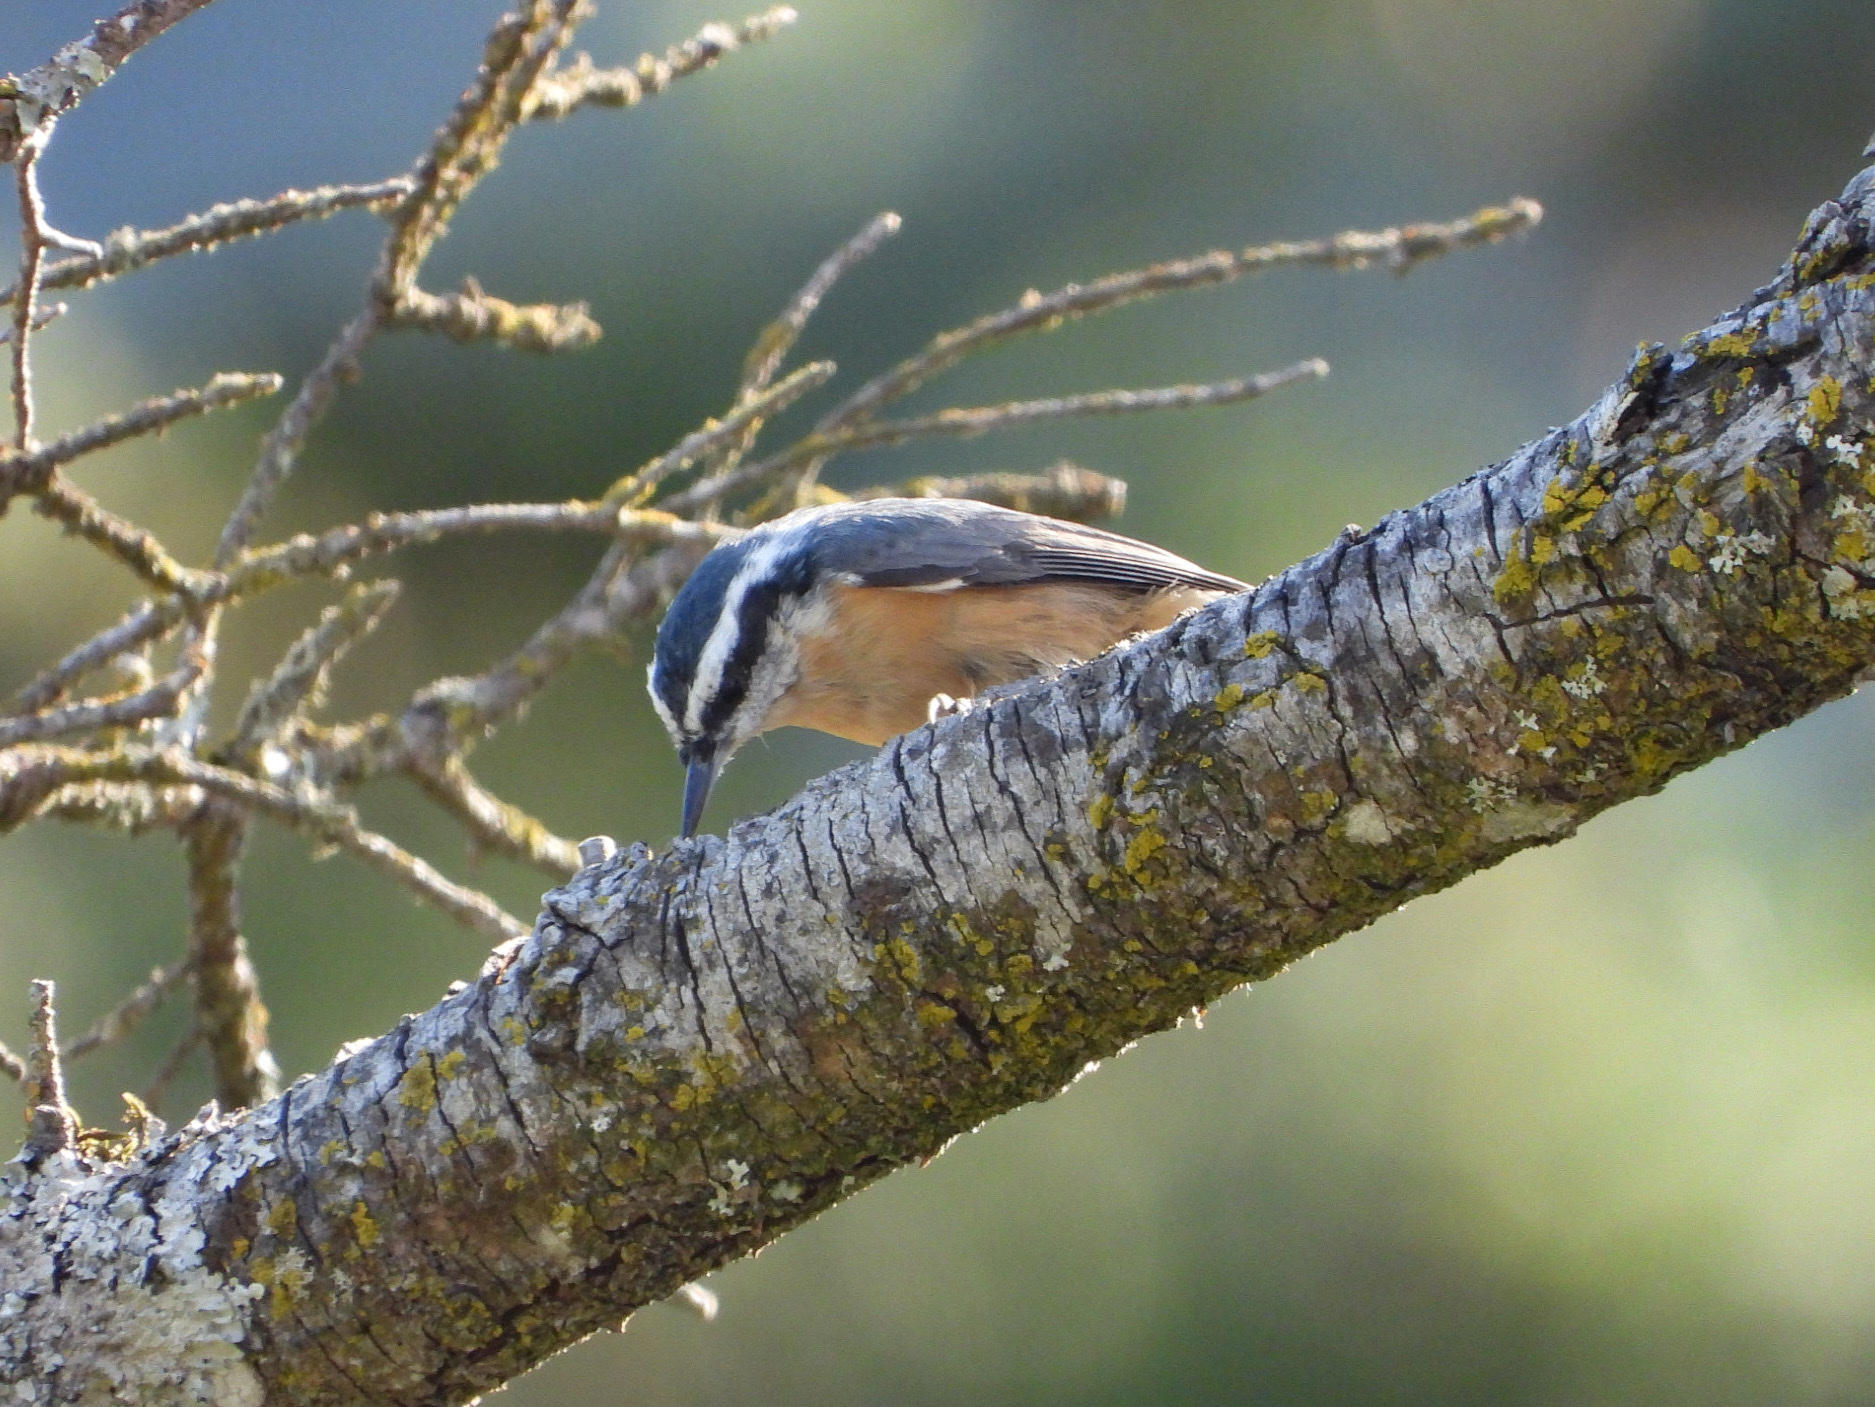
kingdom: Animalia
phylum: Chordata
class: Aves
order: Passeriformes
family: Sittidae
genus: Sitta
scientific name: Sitta canadensis
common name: Red-breasted nuthatch
